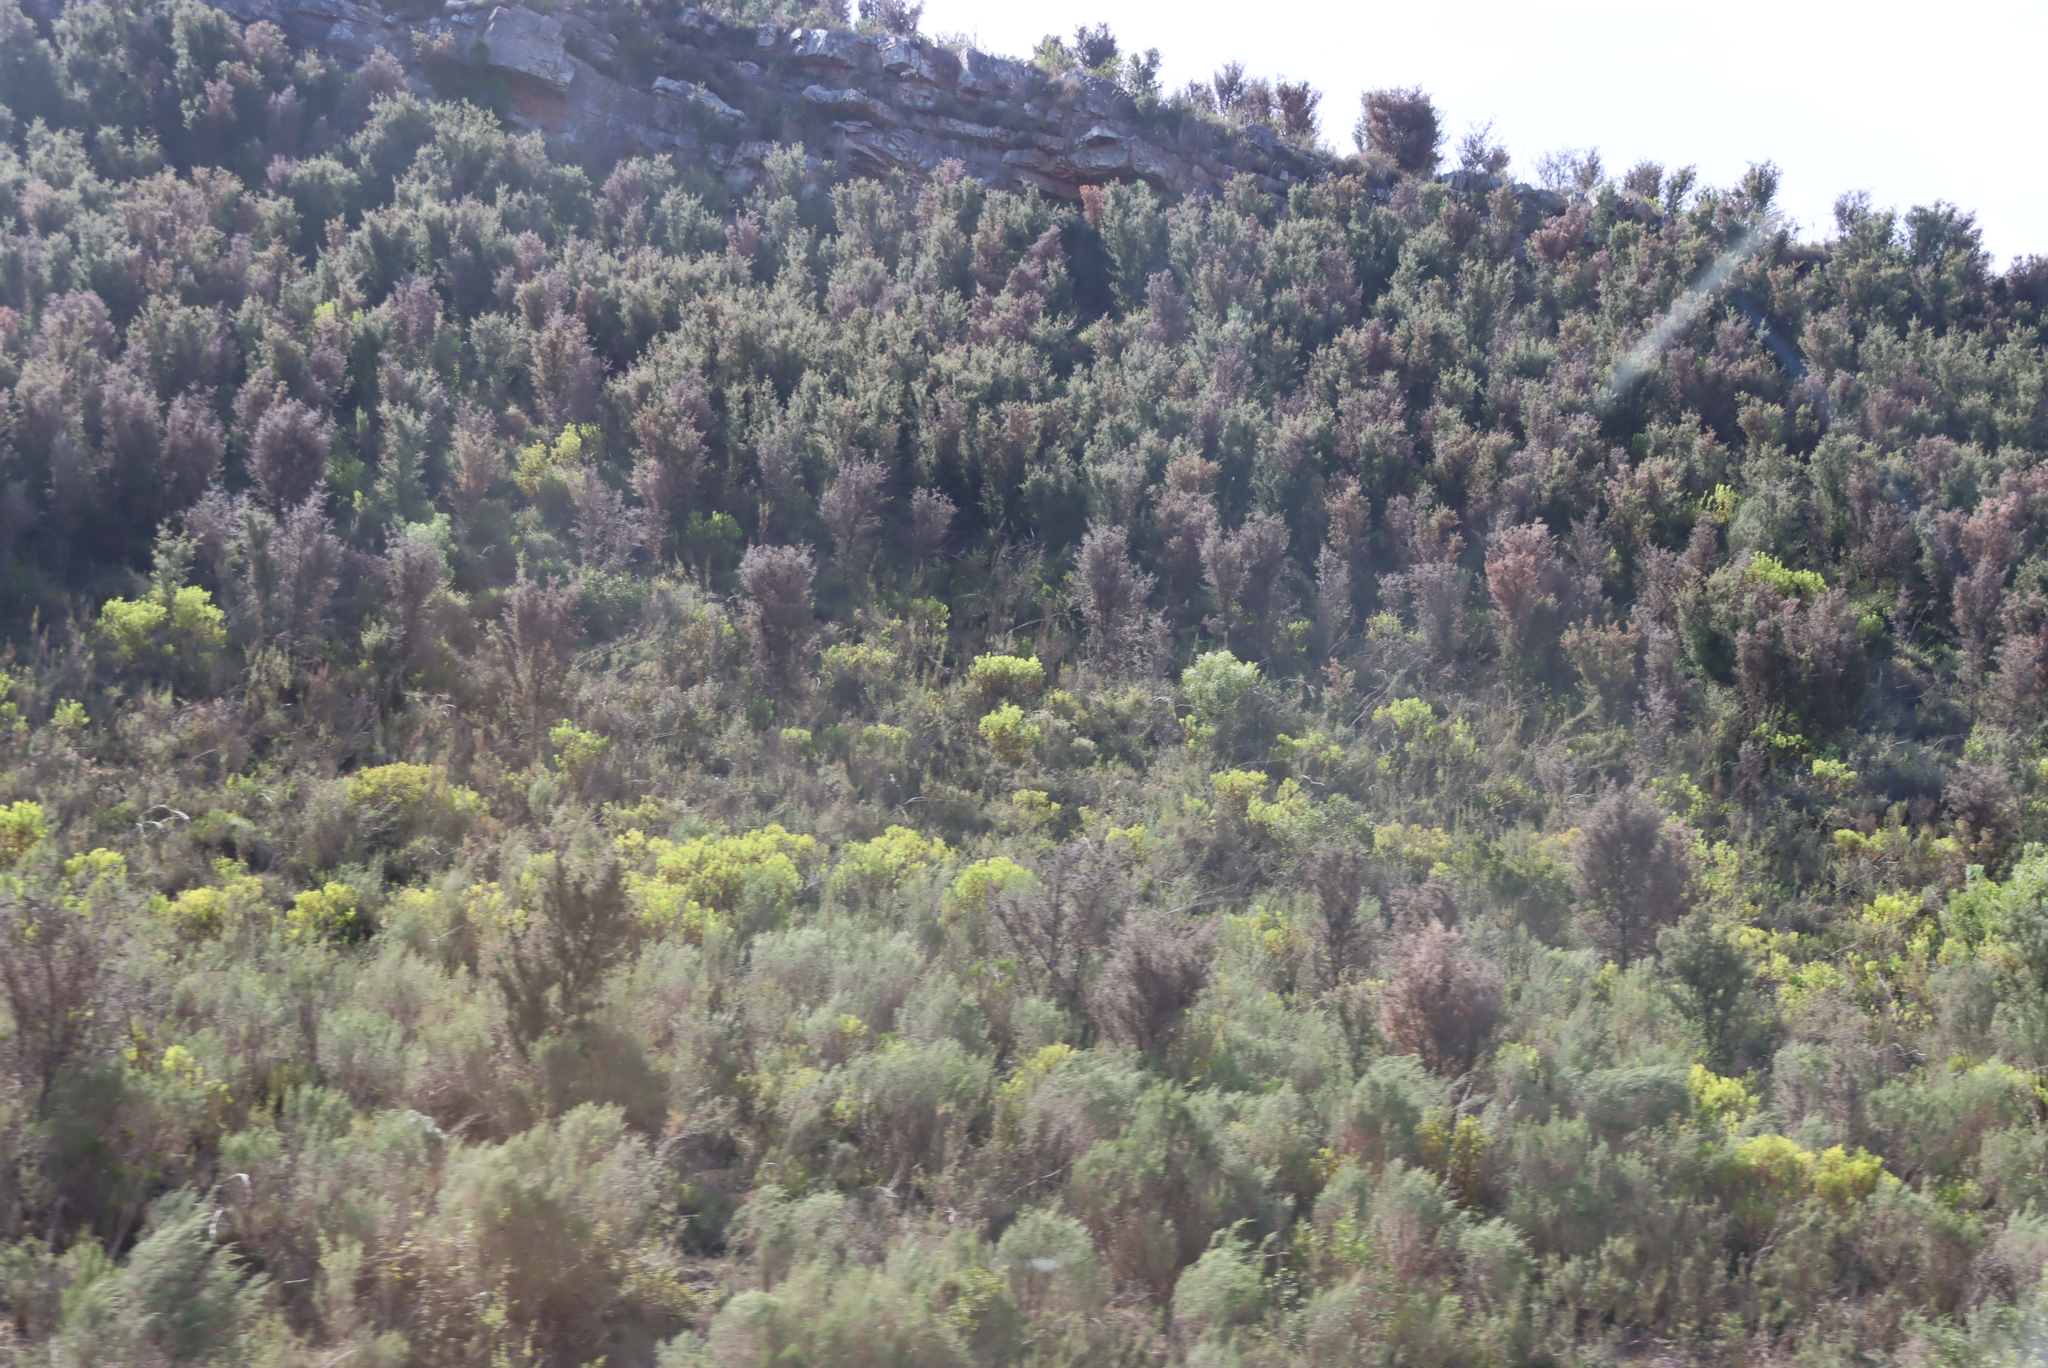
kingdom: Plantae
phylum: Tracheophyta
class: Magnoliopsida
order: Proteales
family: Proteaceae
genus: Hakea
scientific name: Hakea sericea
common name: Needle bush
